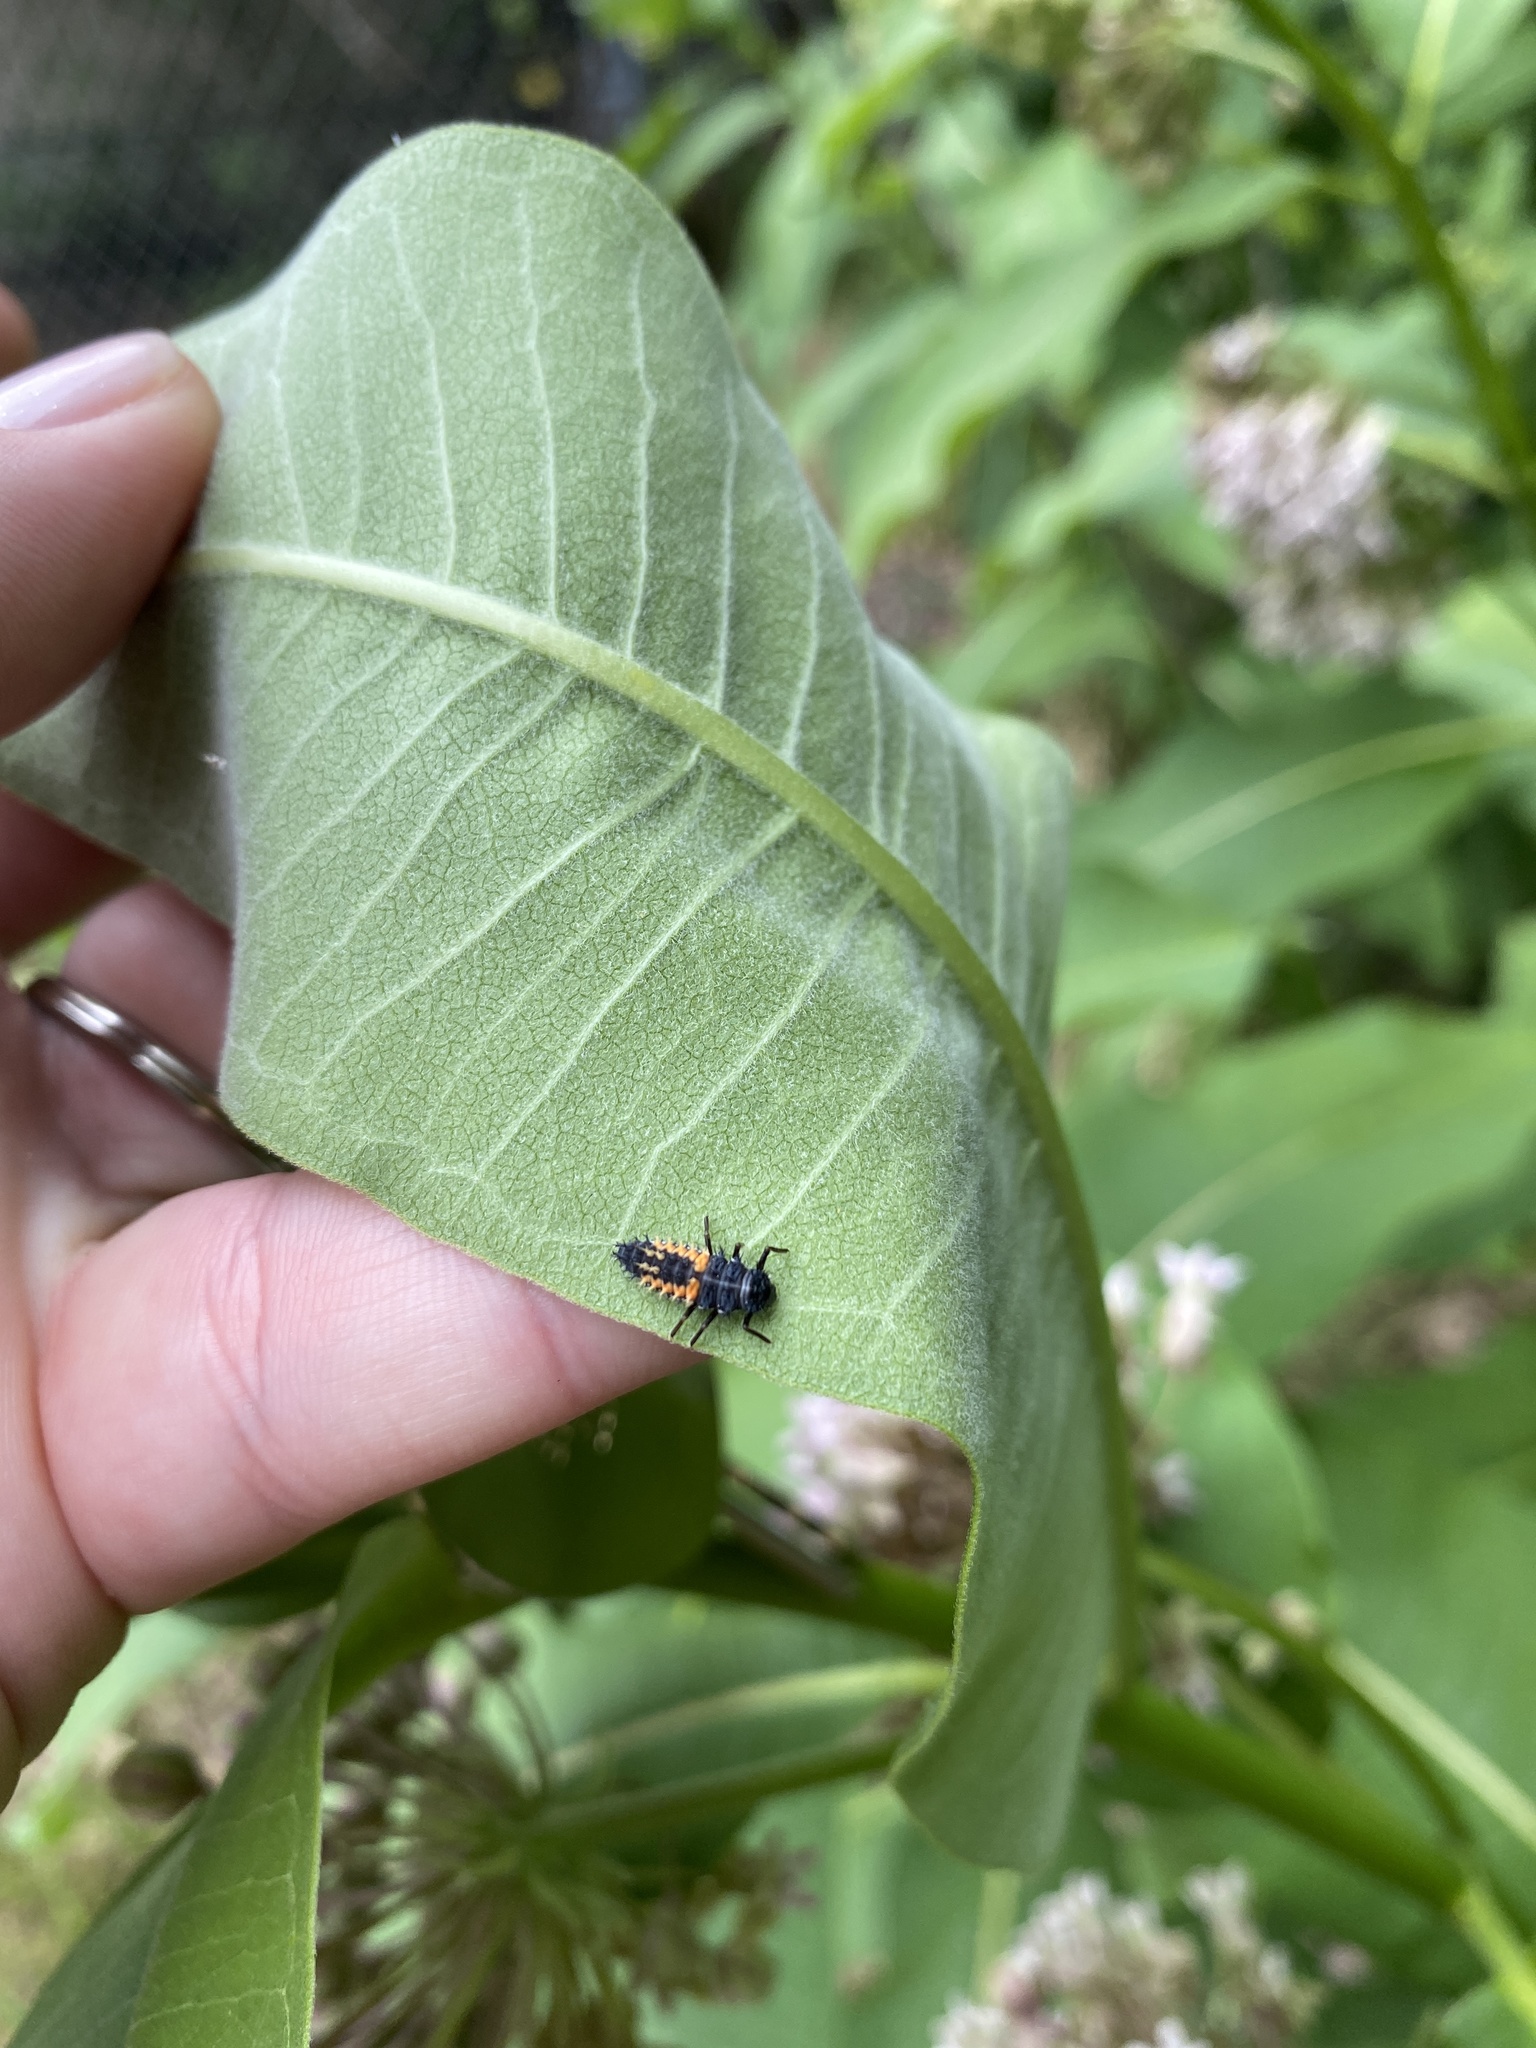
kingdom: Animalia
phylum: Arthropoda
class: Insecta
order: Coleoptera
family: Coccinellidae
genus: Harmonia
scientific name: Harmonia axyridis
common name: Harlequin ladybird
